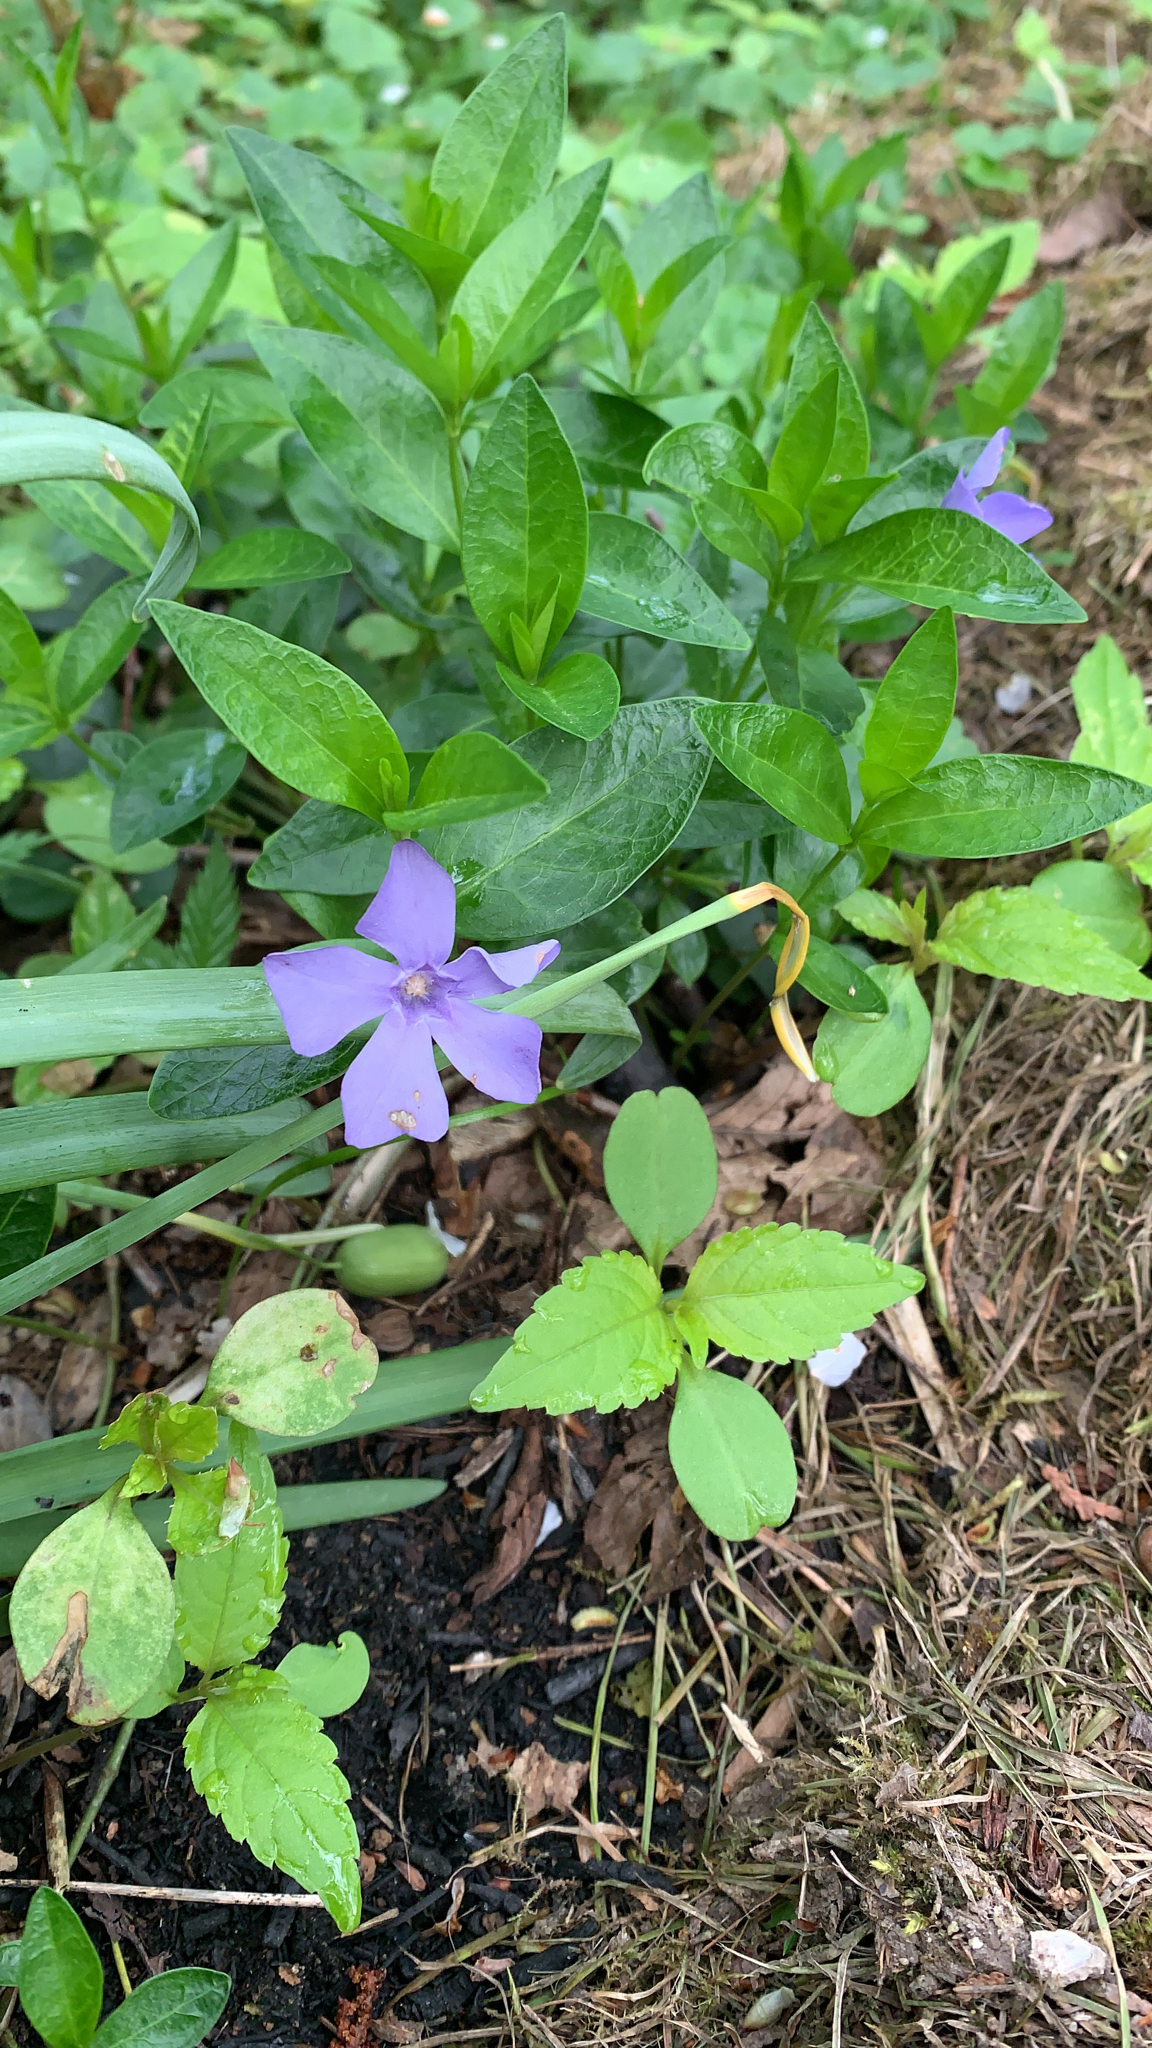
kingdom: Plantae
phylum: Tracheophyta
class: Magnoliopsida
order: Gentianales
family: Apocynaceae
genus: Vinca
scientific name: Vinca minor
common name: Lesser periwinkle
